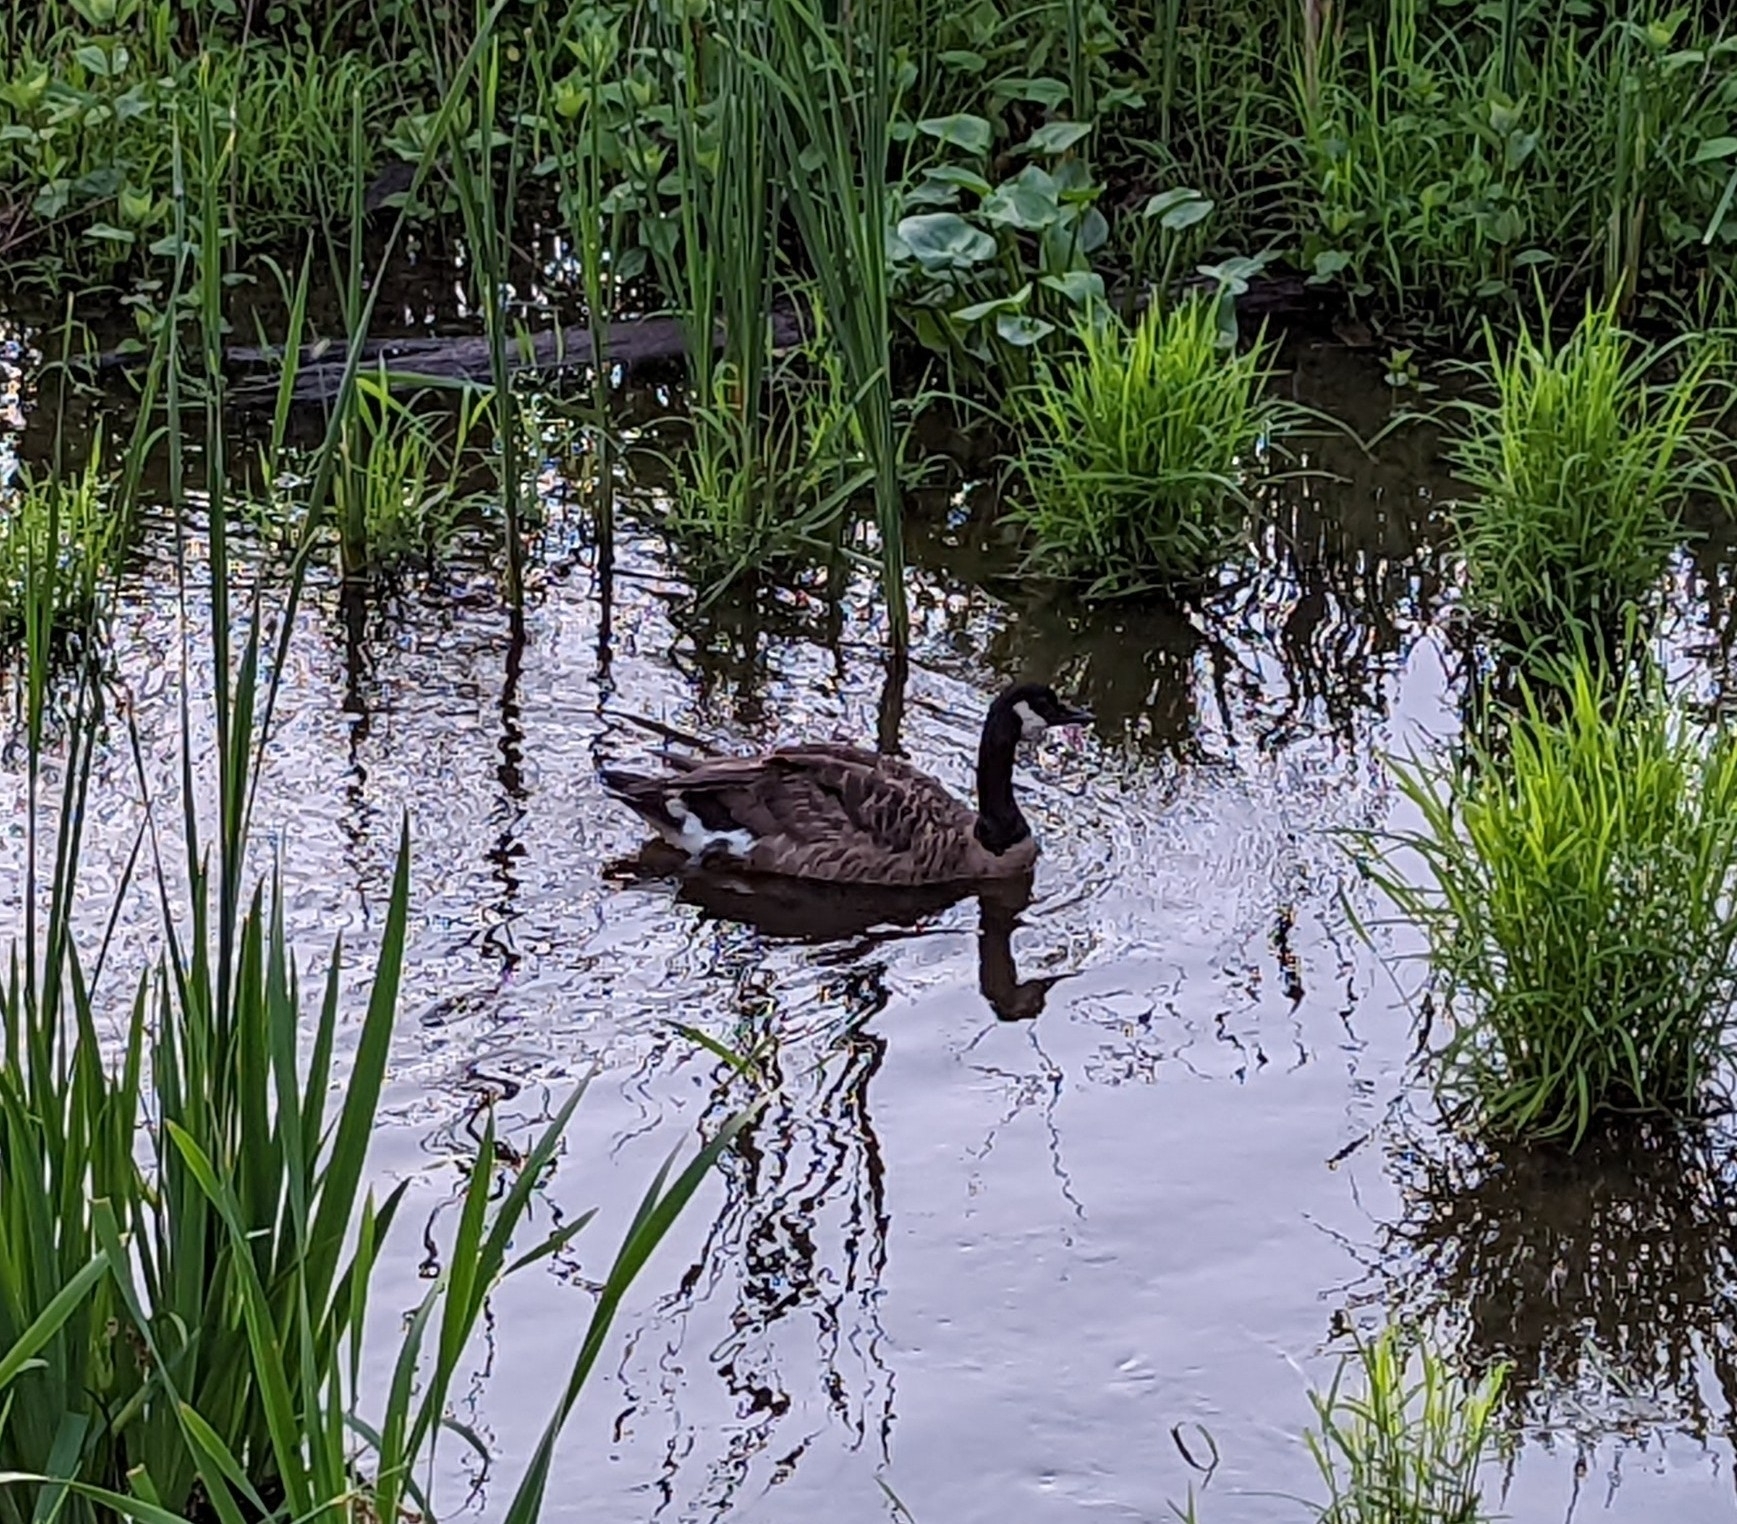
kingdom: Animalia
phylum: Chordata
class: Aves
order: Anseriformes
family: Anatidae
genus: Branta
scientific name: Branta canadensis
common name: Canada goose
